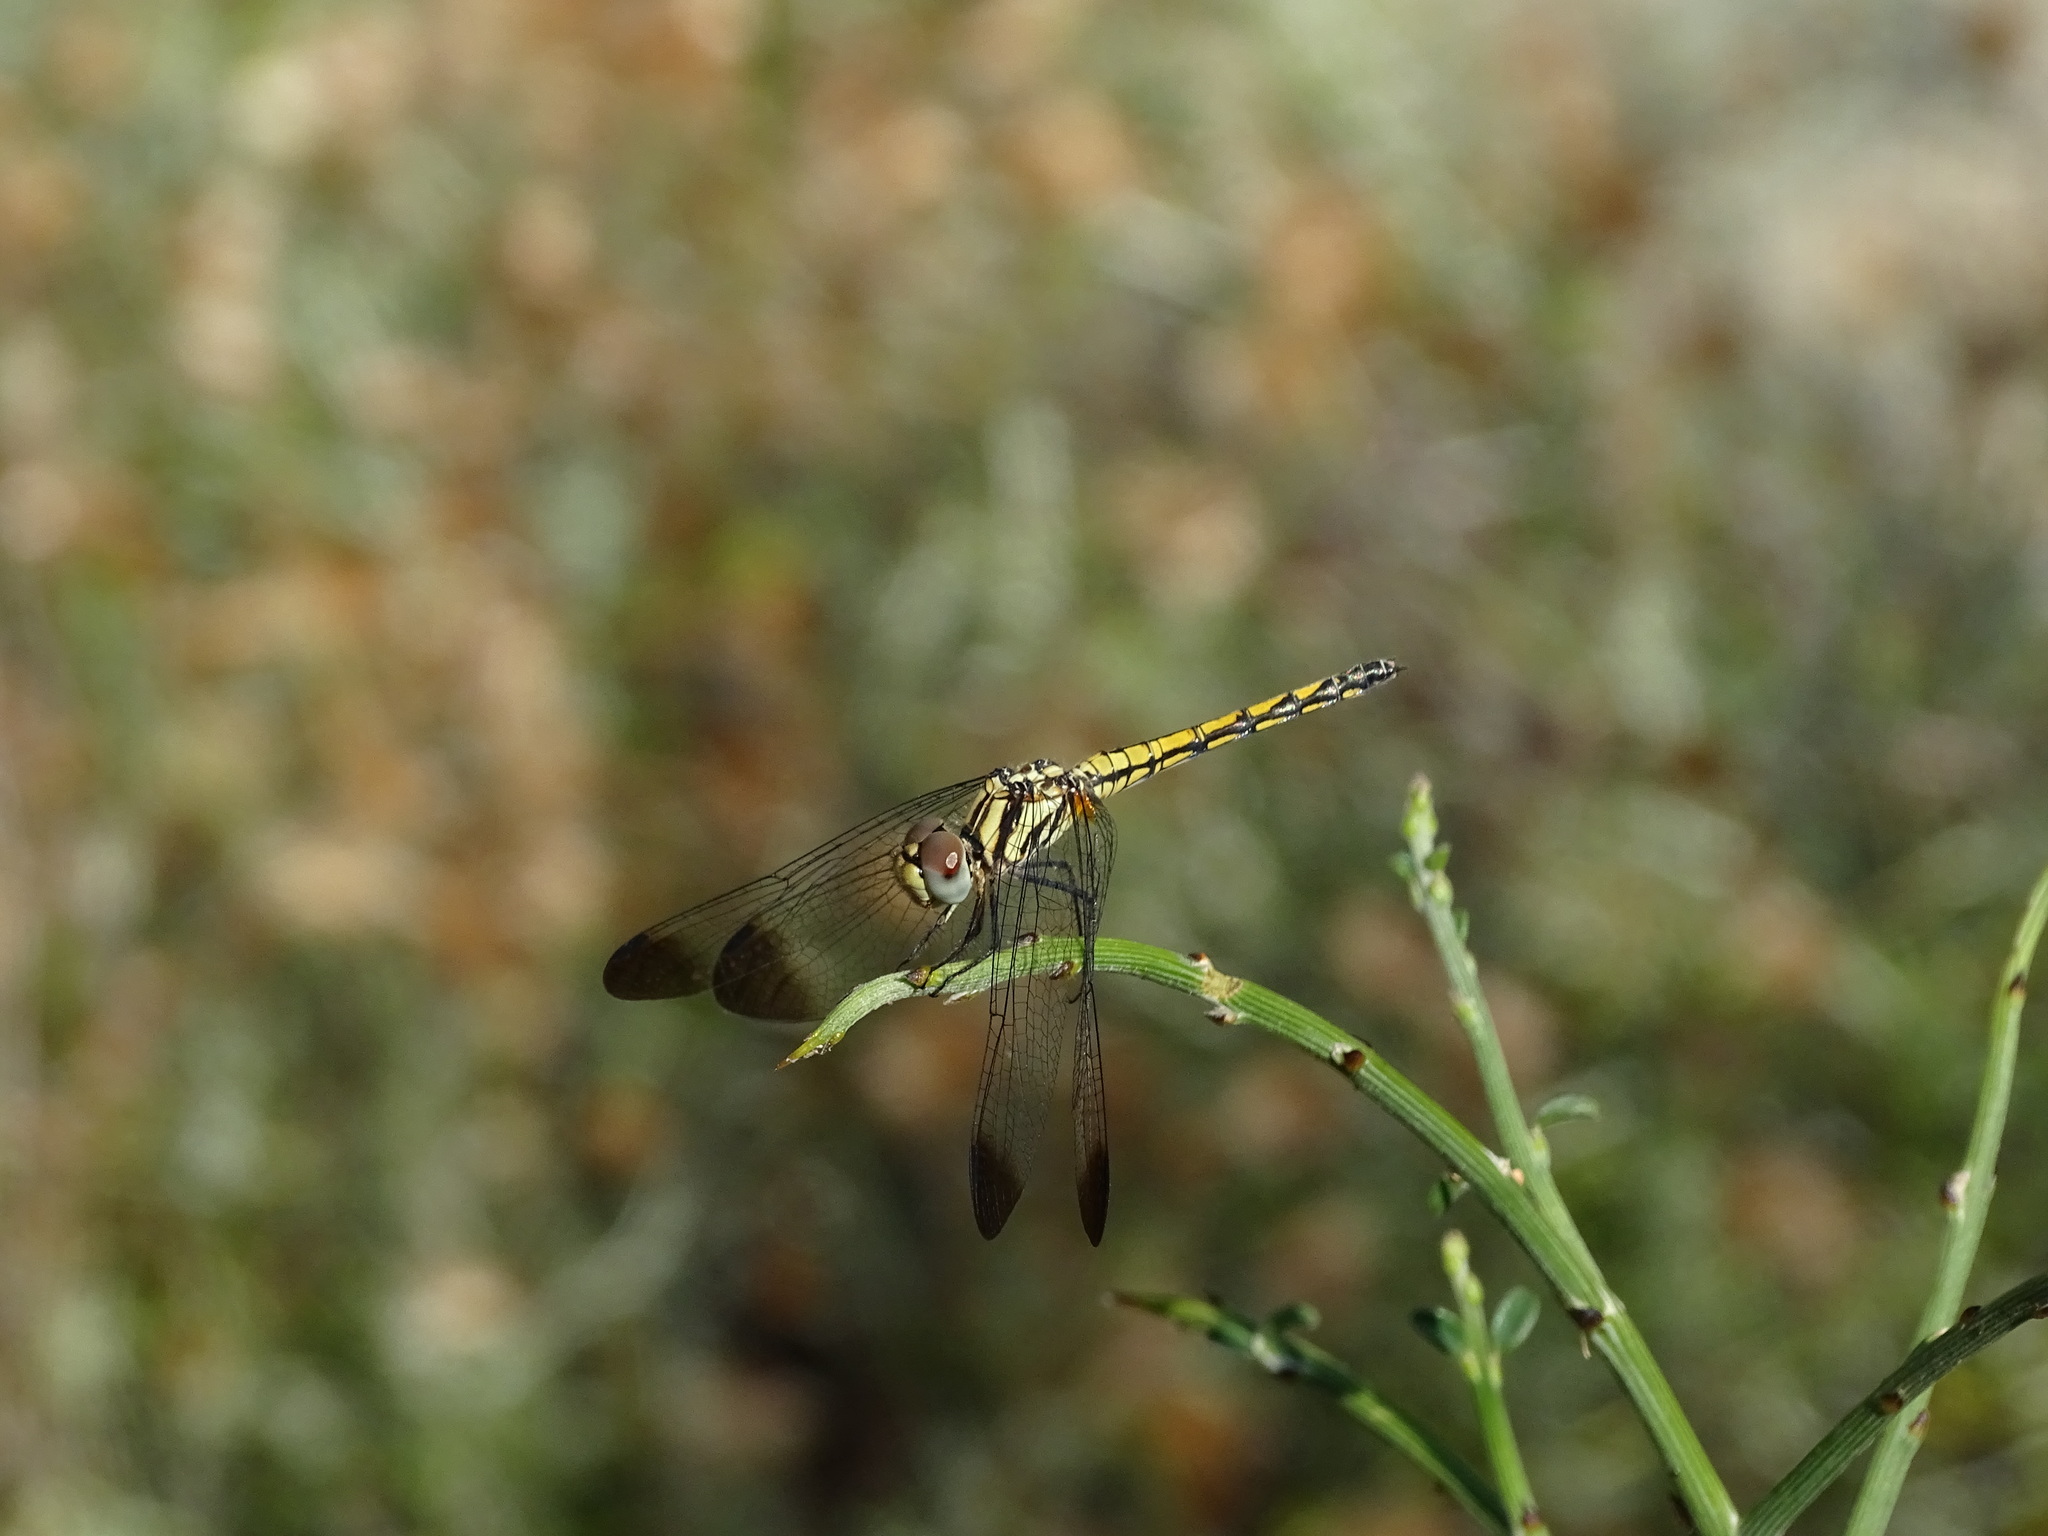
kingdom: Animalia
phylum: Arthropoda
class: Insecta
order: Odonata
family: Libellulidae
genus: Trithemis
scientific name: Trithemis festiva
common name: Indigo dropwing
